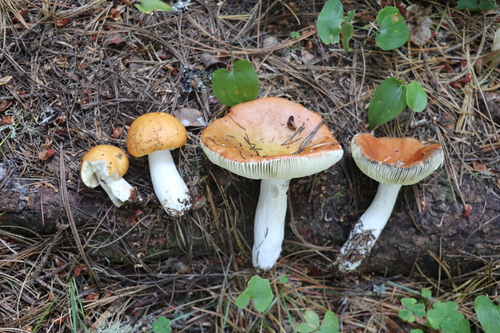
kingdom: Fungi
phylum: Basidiomycota
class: Agaricomycetes
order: Russulales
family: Russulaceae
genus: Russula
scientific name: Russula decolorans
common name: Copper brittlegill
